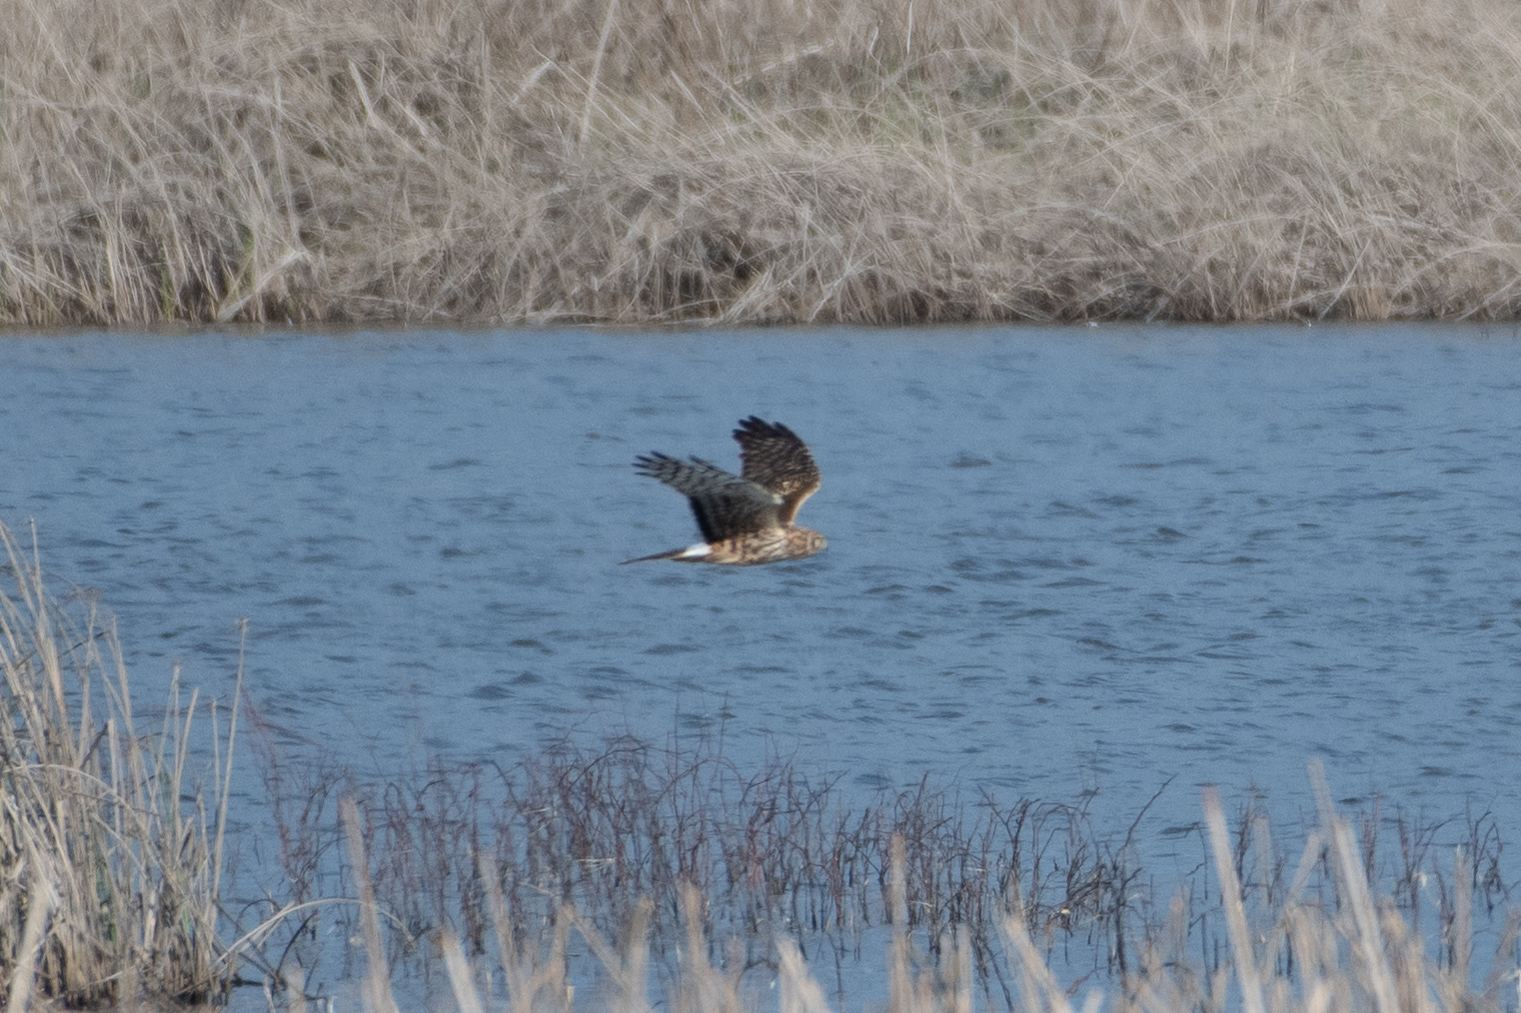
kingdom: Animalia
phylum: Chordata
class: Aves
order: Accipitriformes
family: Accipitridae
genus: Circus
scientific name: Circus cyaneus
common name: Hen harrier
